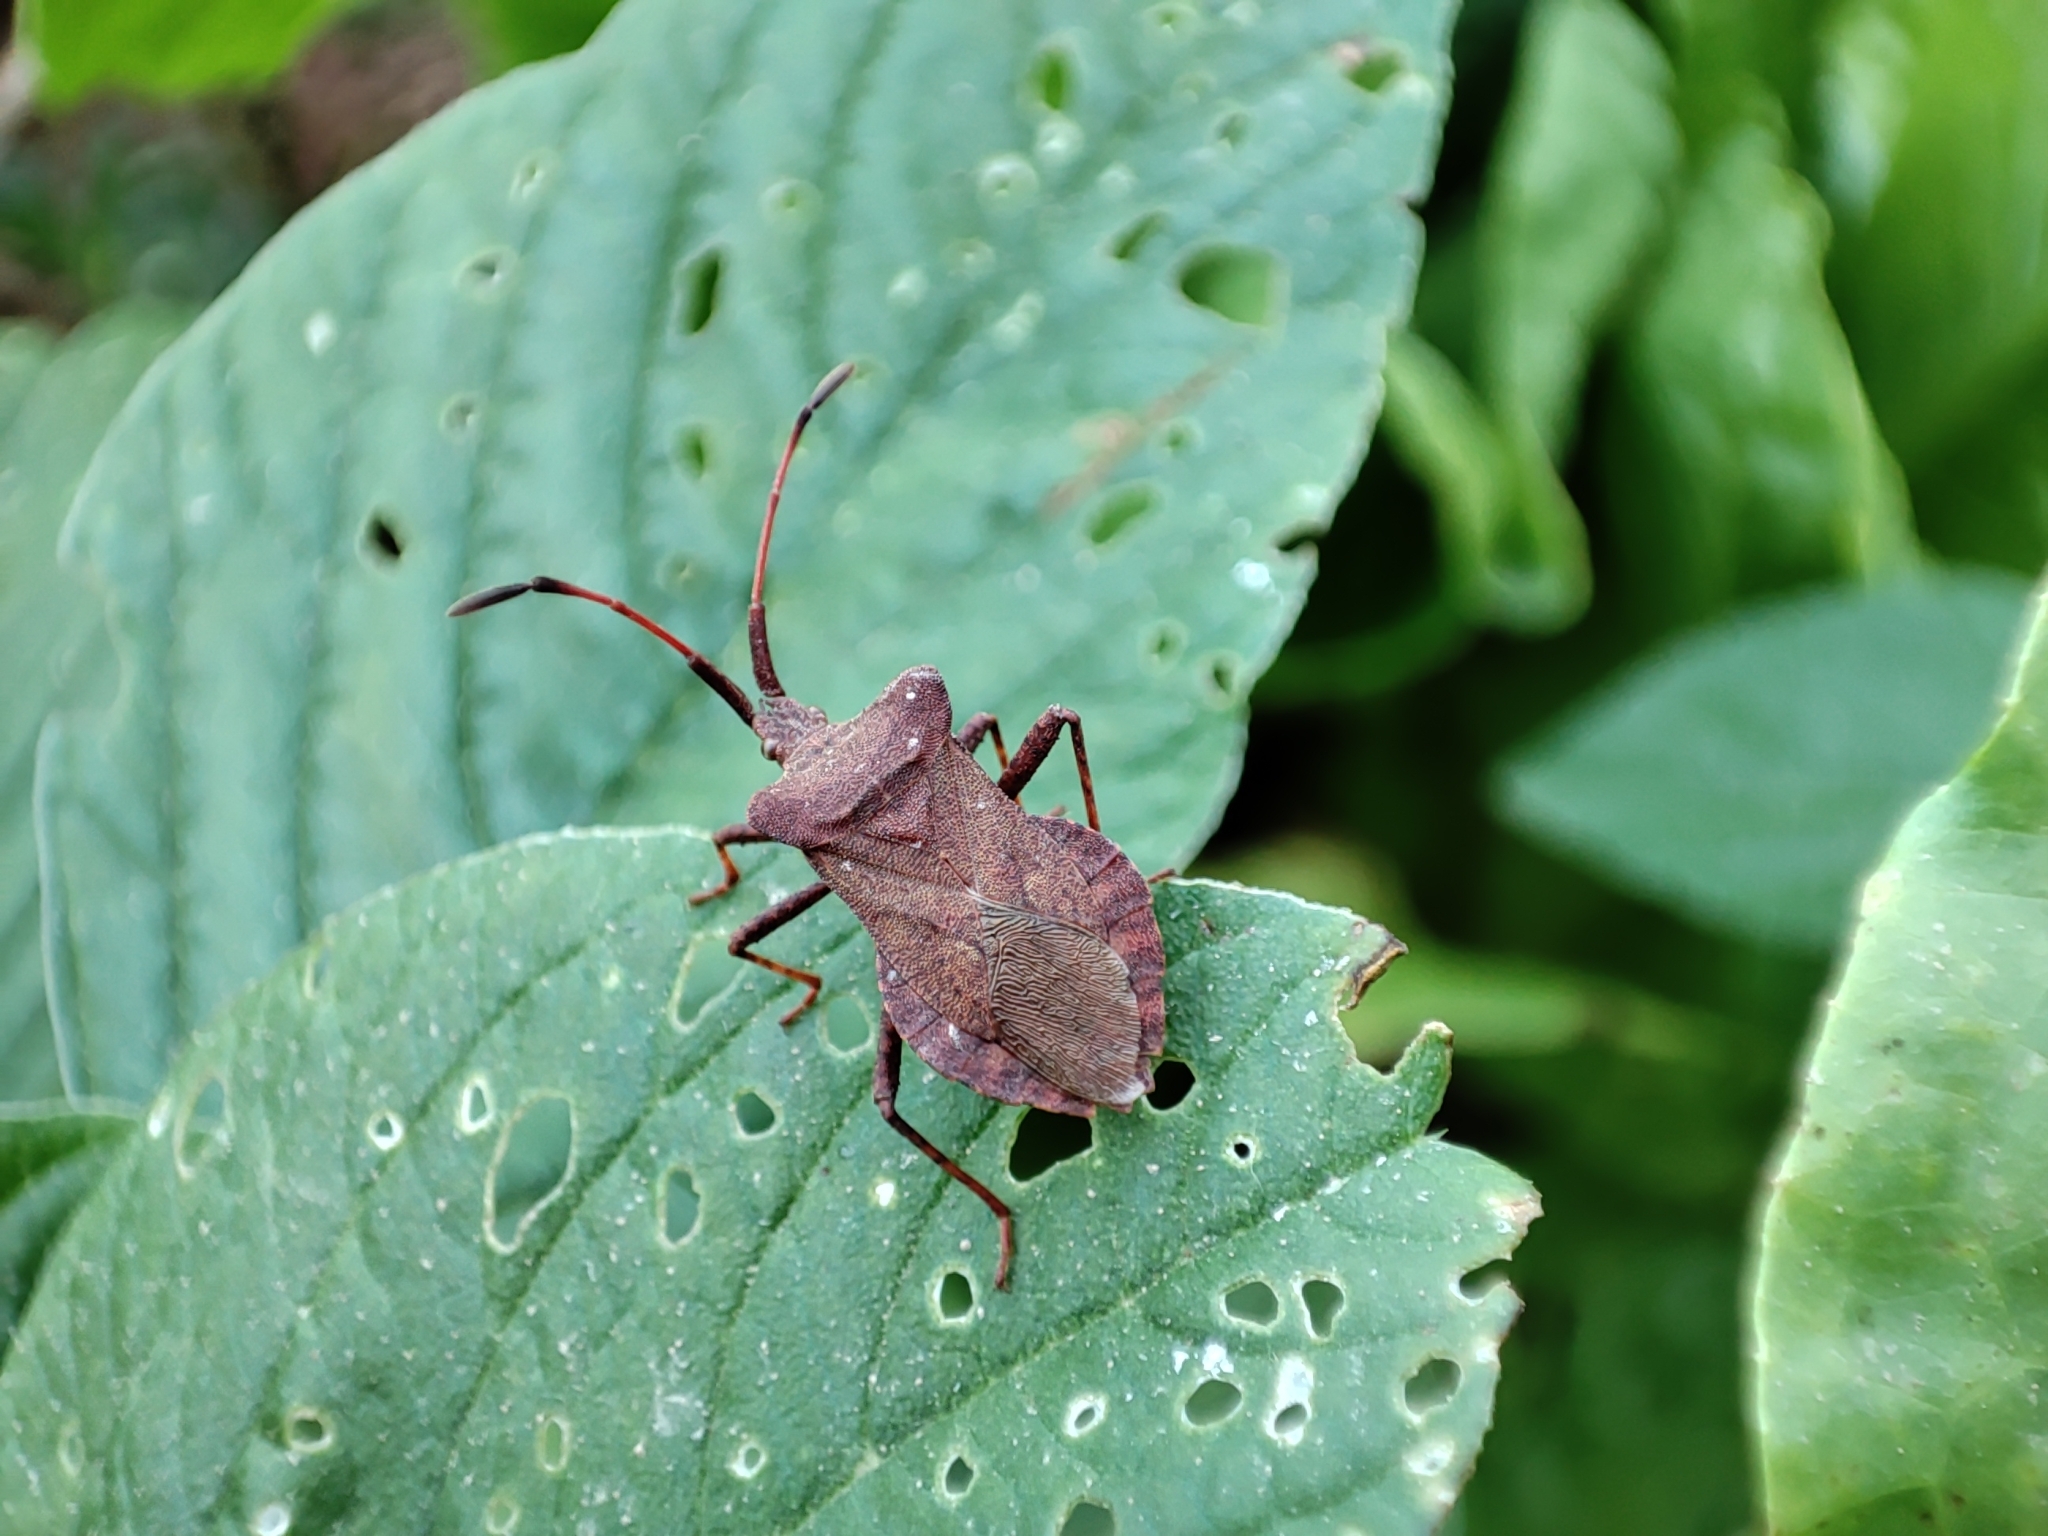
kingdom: Animalia
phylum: Arthropoda
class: Insecta
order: Hemiptera
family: Coreidae
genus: Coreus
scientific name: Coreus marginatus
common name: Dock bug
